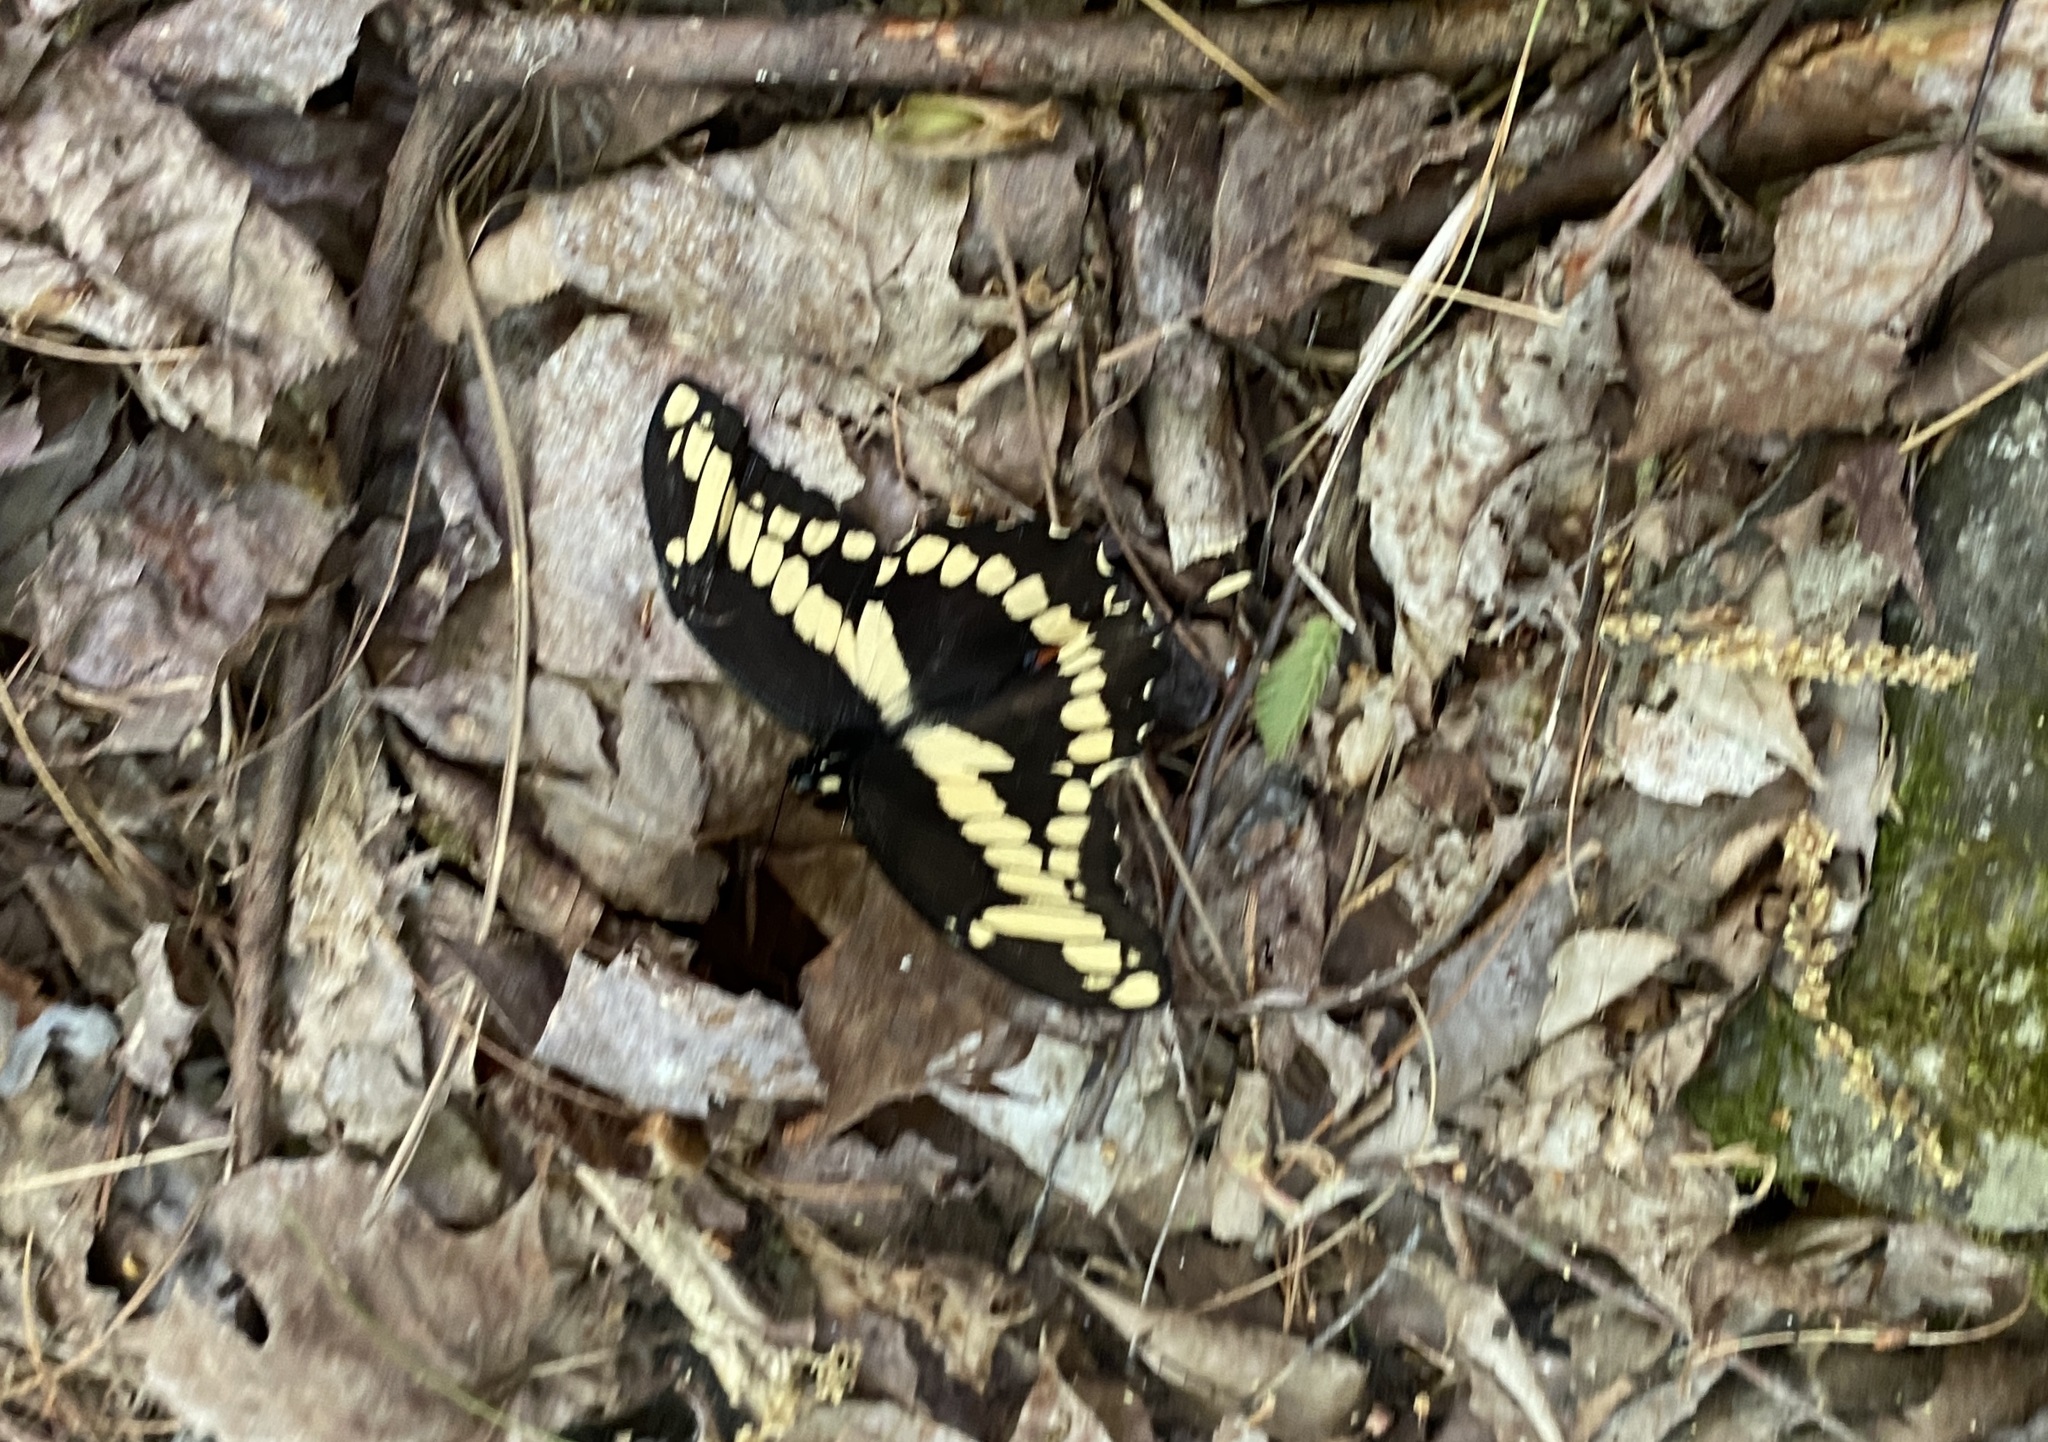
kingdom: Animalia
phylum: Arthropoda
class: Insecta
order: Lepidoptera
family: Papilionidae
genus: Papilio
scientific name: Papilio cresphontes
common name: Giant swallowtail
